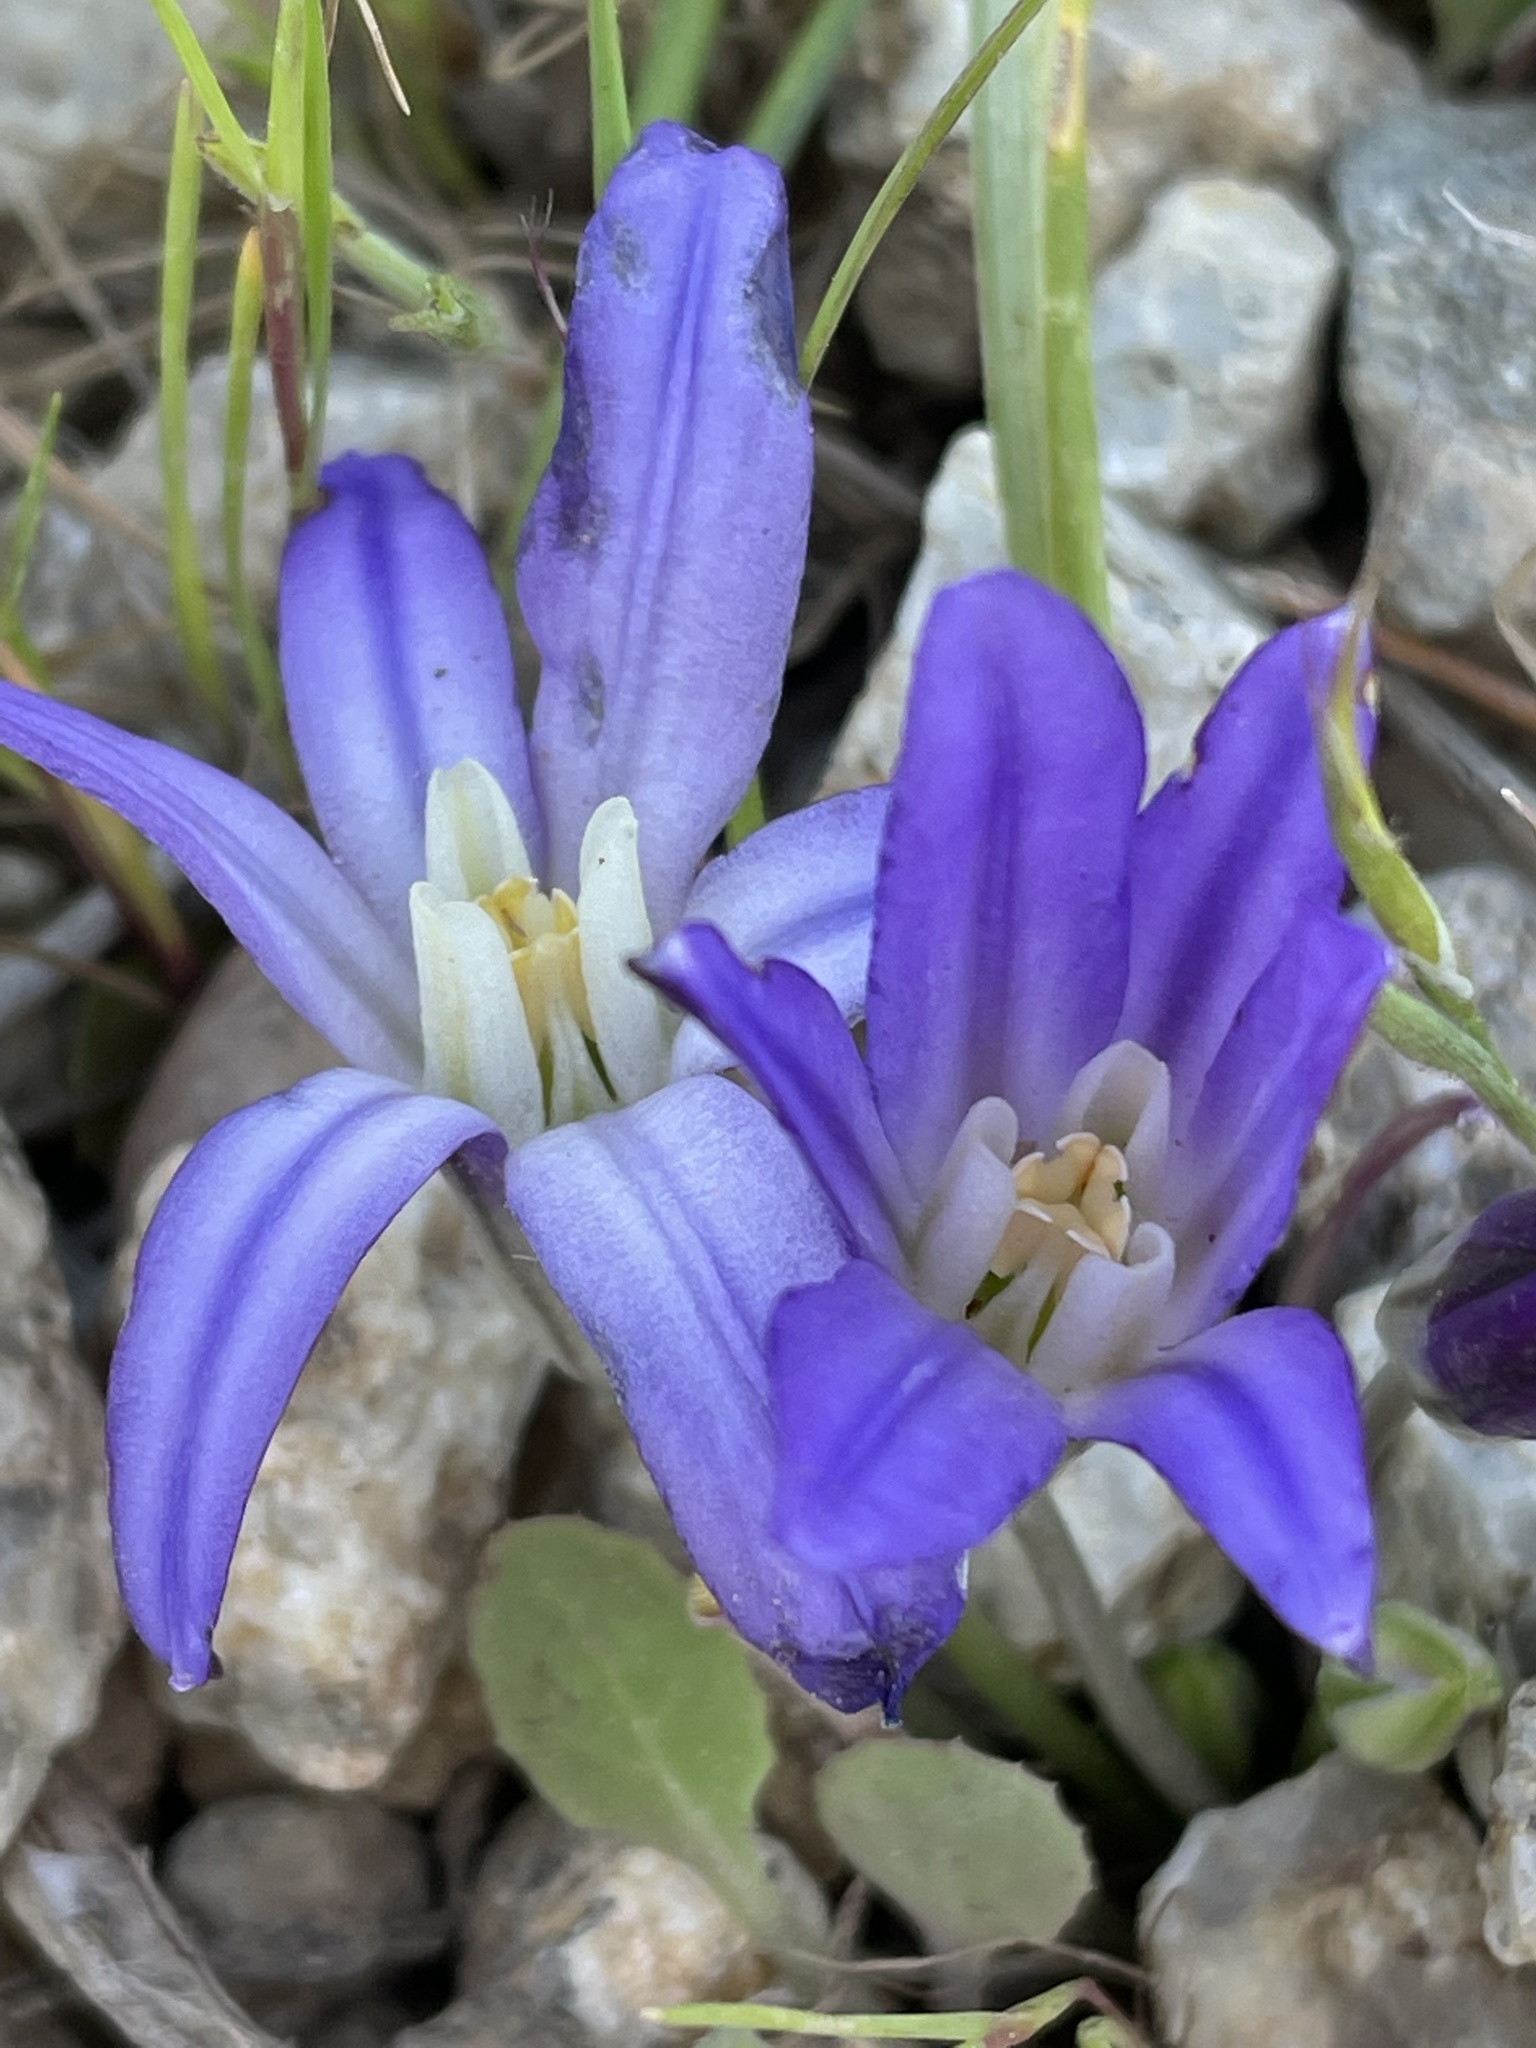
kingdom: Plantae
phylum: Tracheophyta
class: Liliopsida
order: Asparagales
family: Asparagaceae
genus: Brodiaea
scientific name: Brodiaea terrestris
